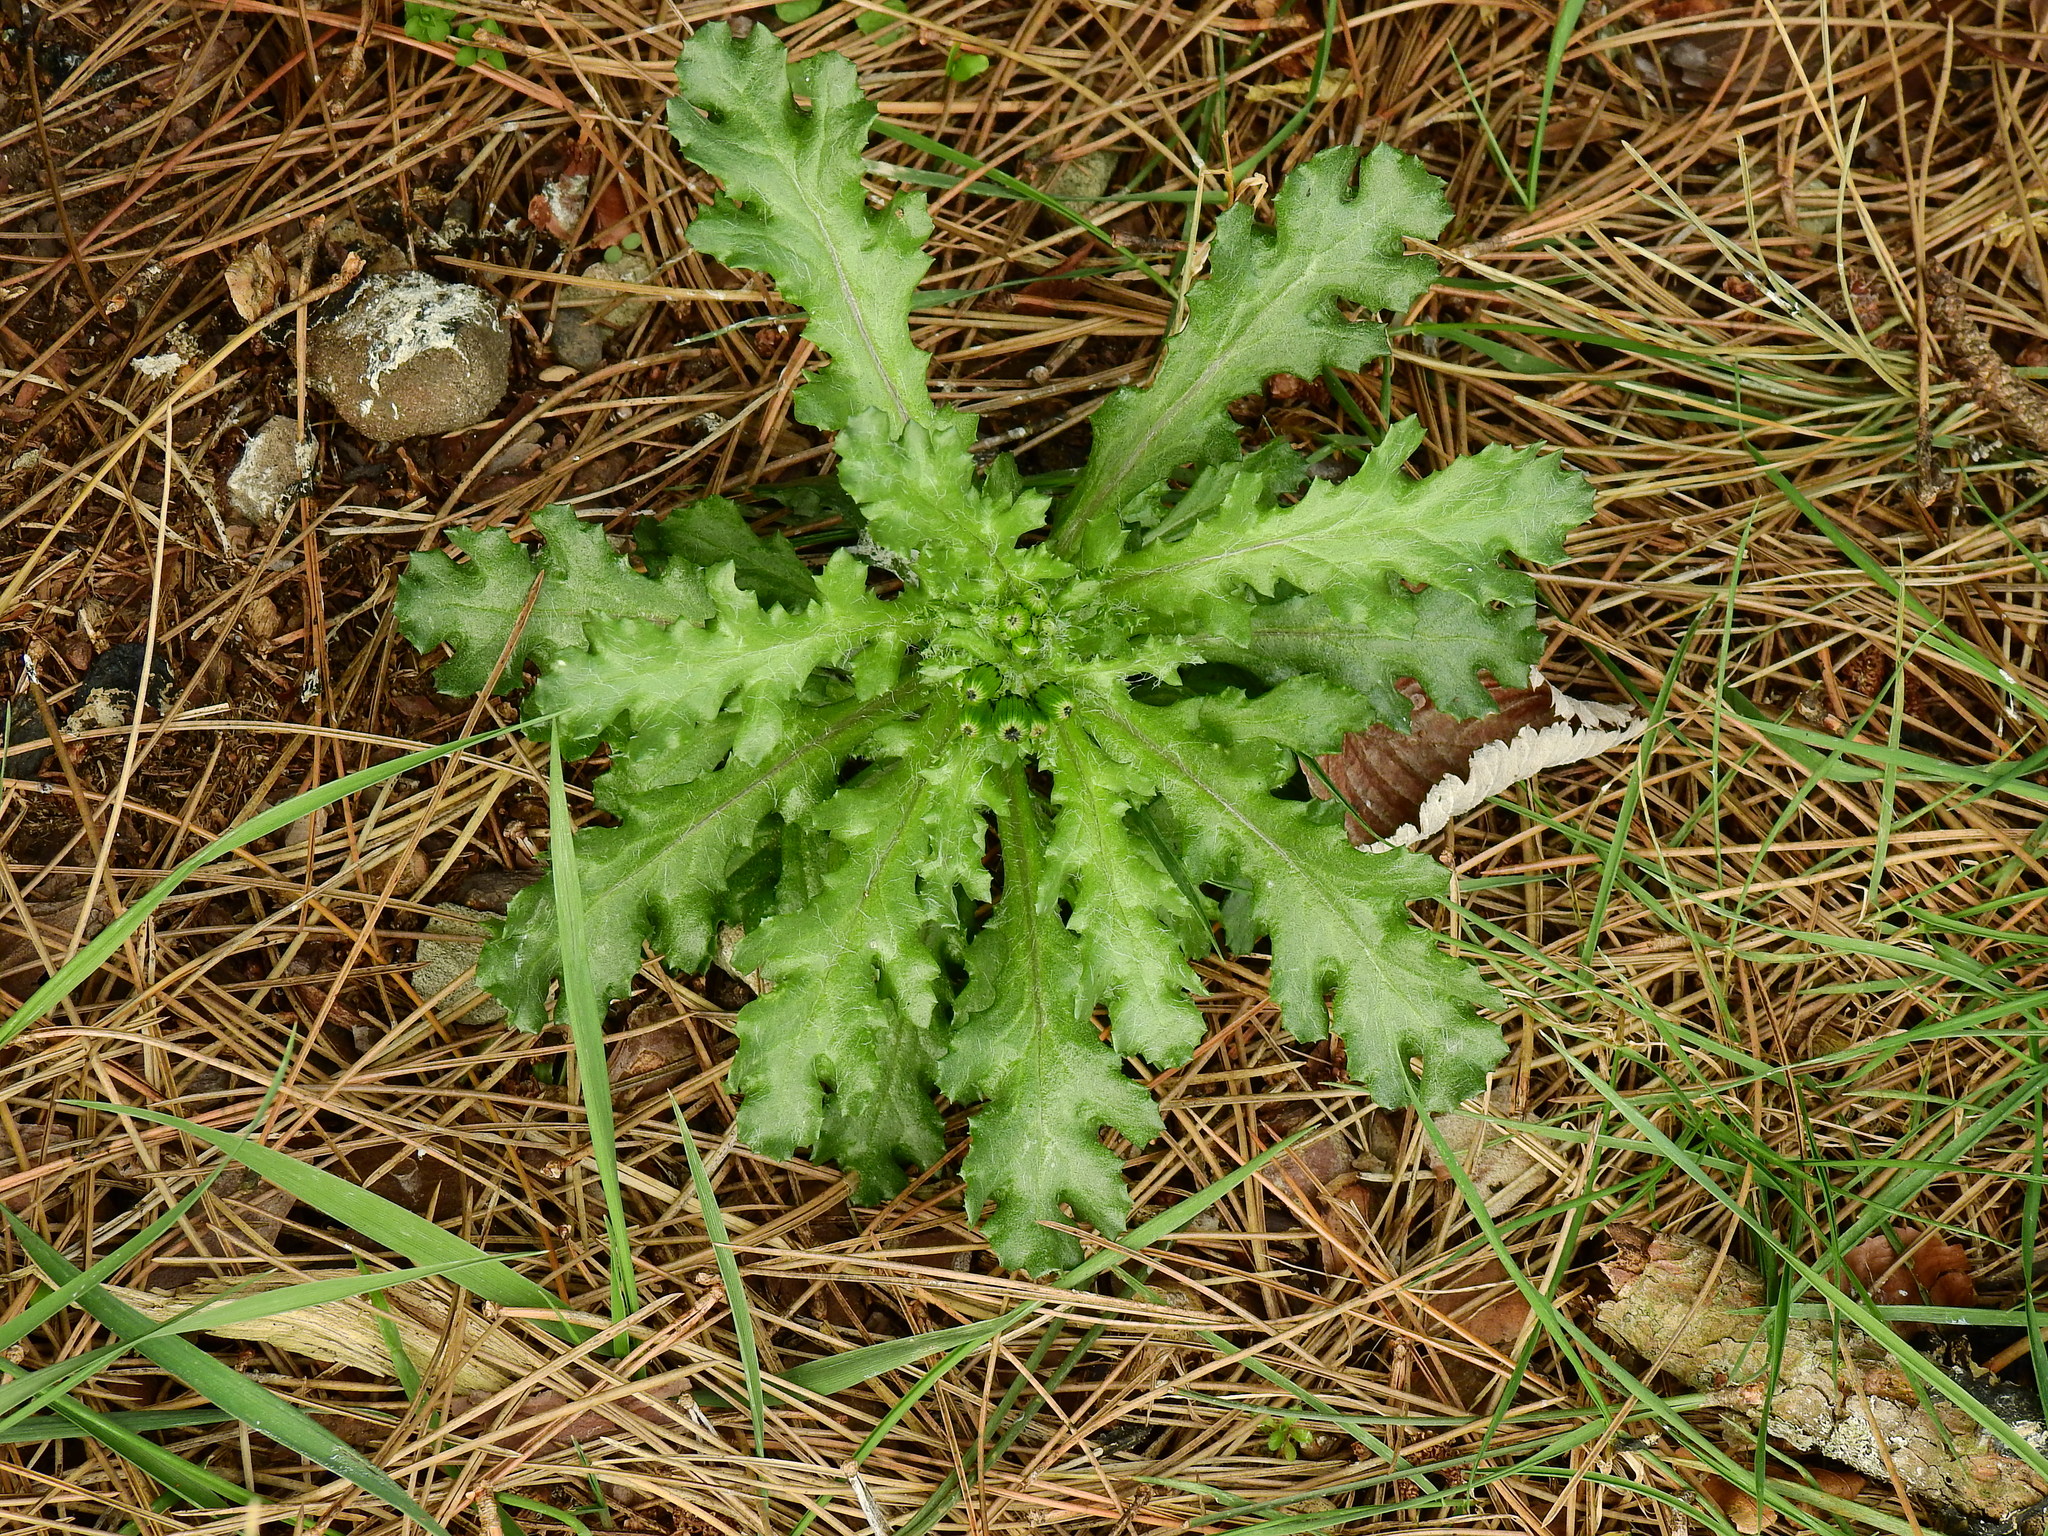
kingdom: Plantae
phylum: Tracheophyta
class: Magnoliopsida
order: Asterales
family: Asteraceae
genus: Senecio
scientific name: Senecio vulgaris
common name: Old-man-in-the-spring
